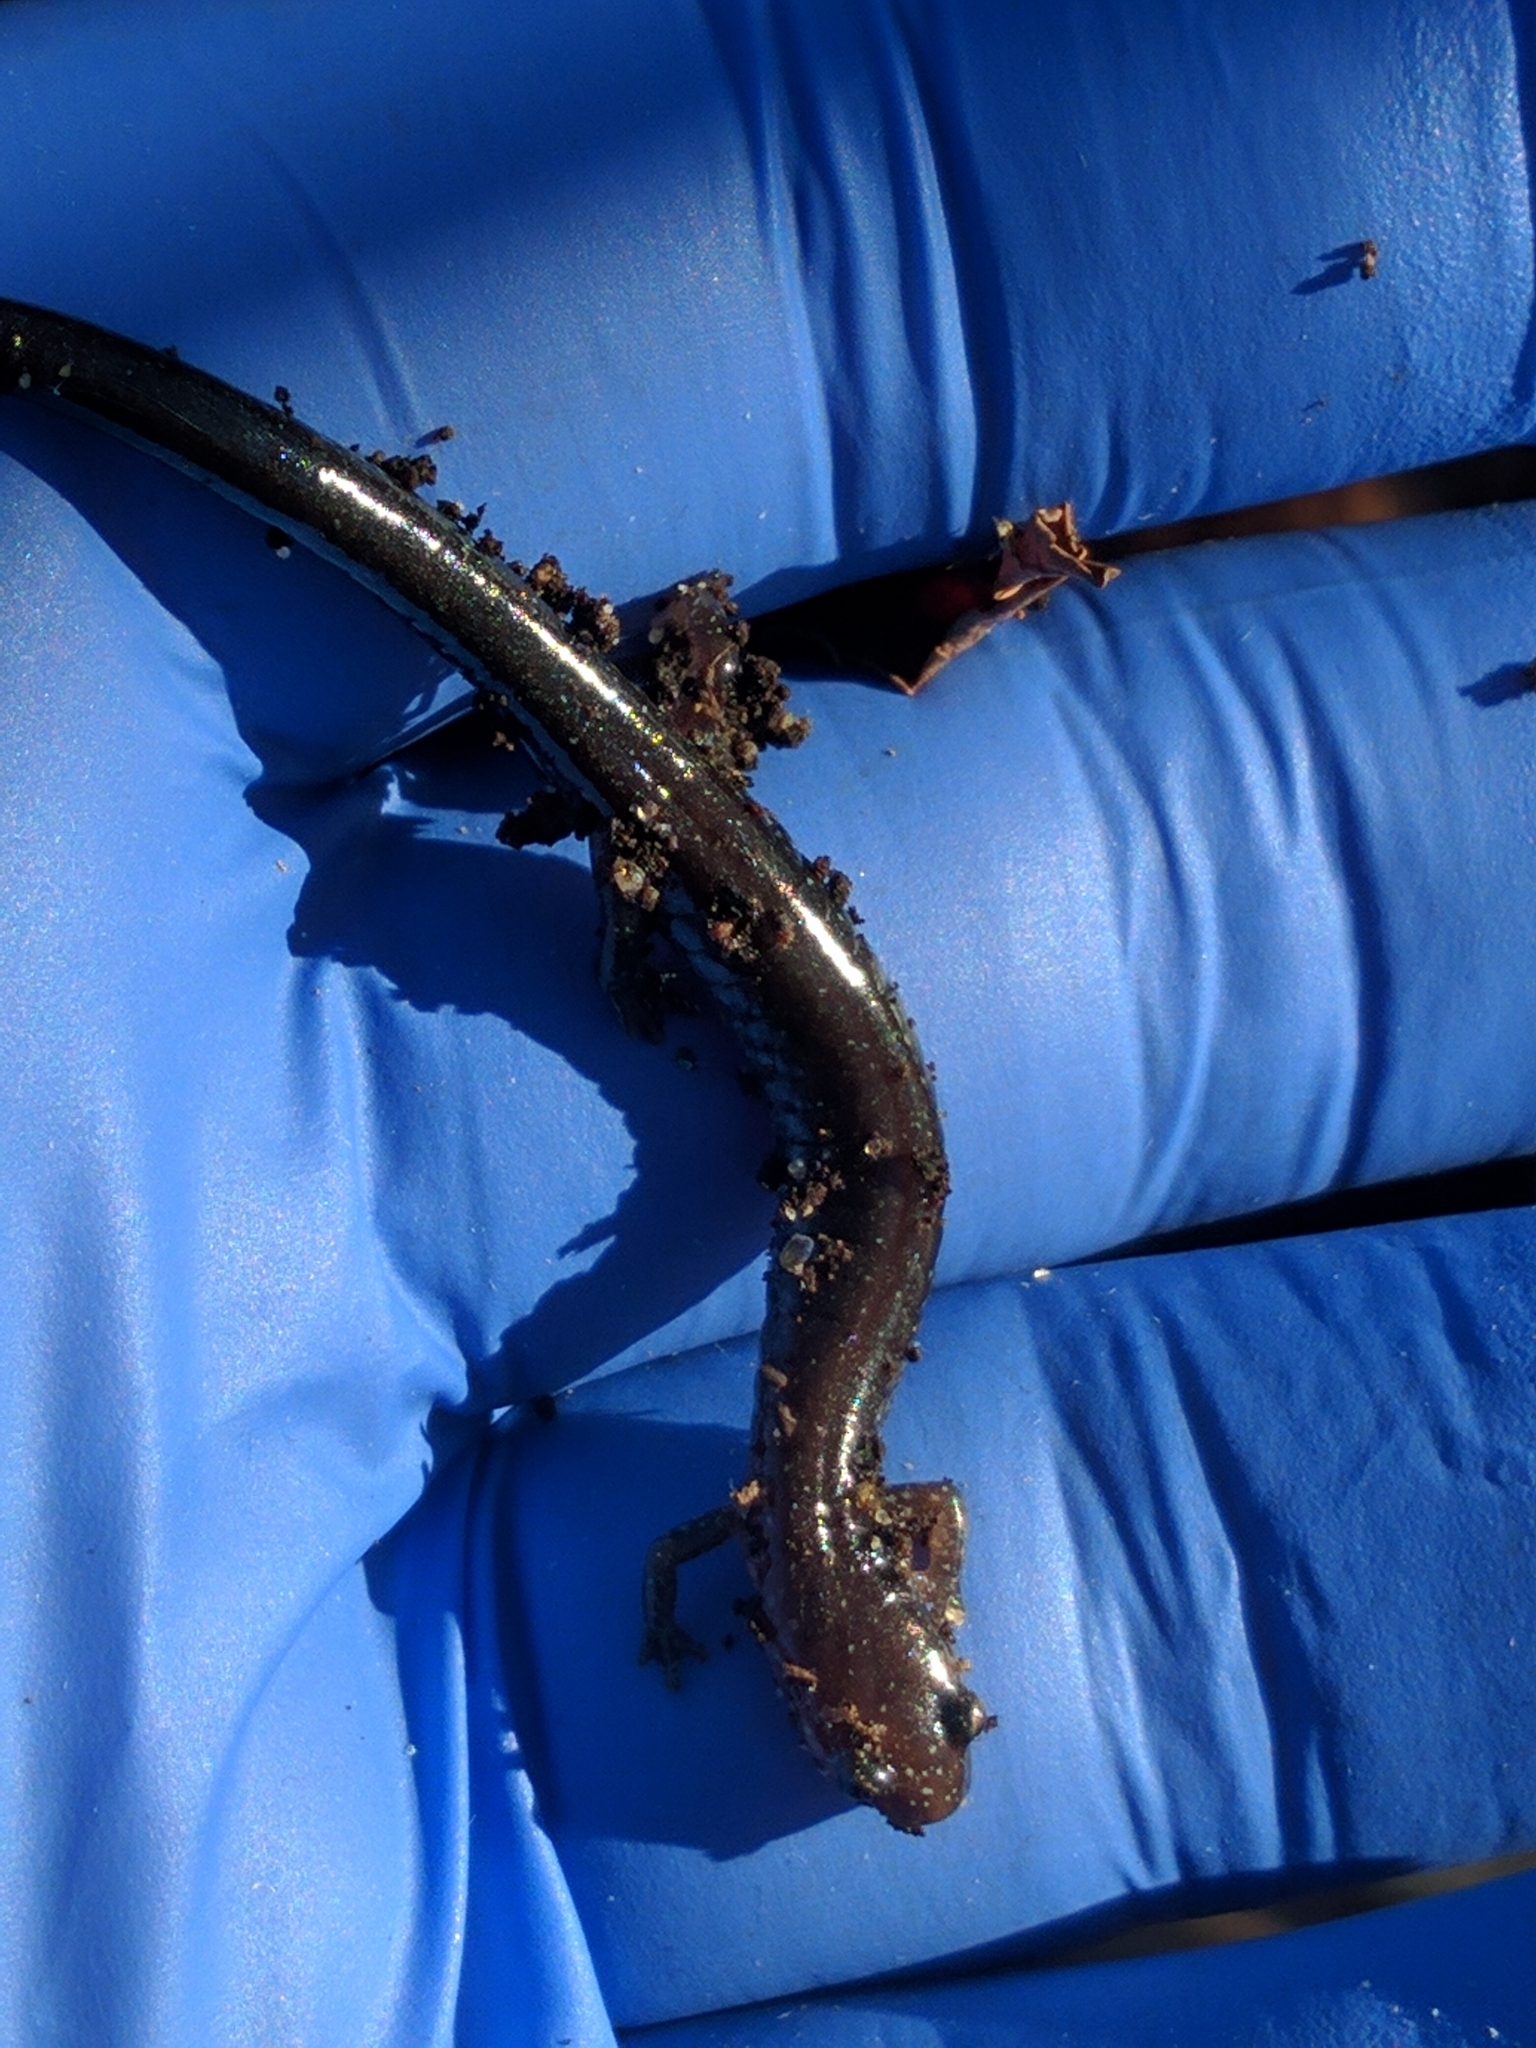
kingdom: Animalia
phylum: Chordata
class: Amphibia
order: Caudata
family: Plethodontidae
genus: Plethodon
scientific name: Plethodon cinereus
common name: Redback salamander
